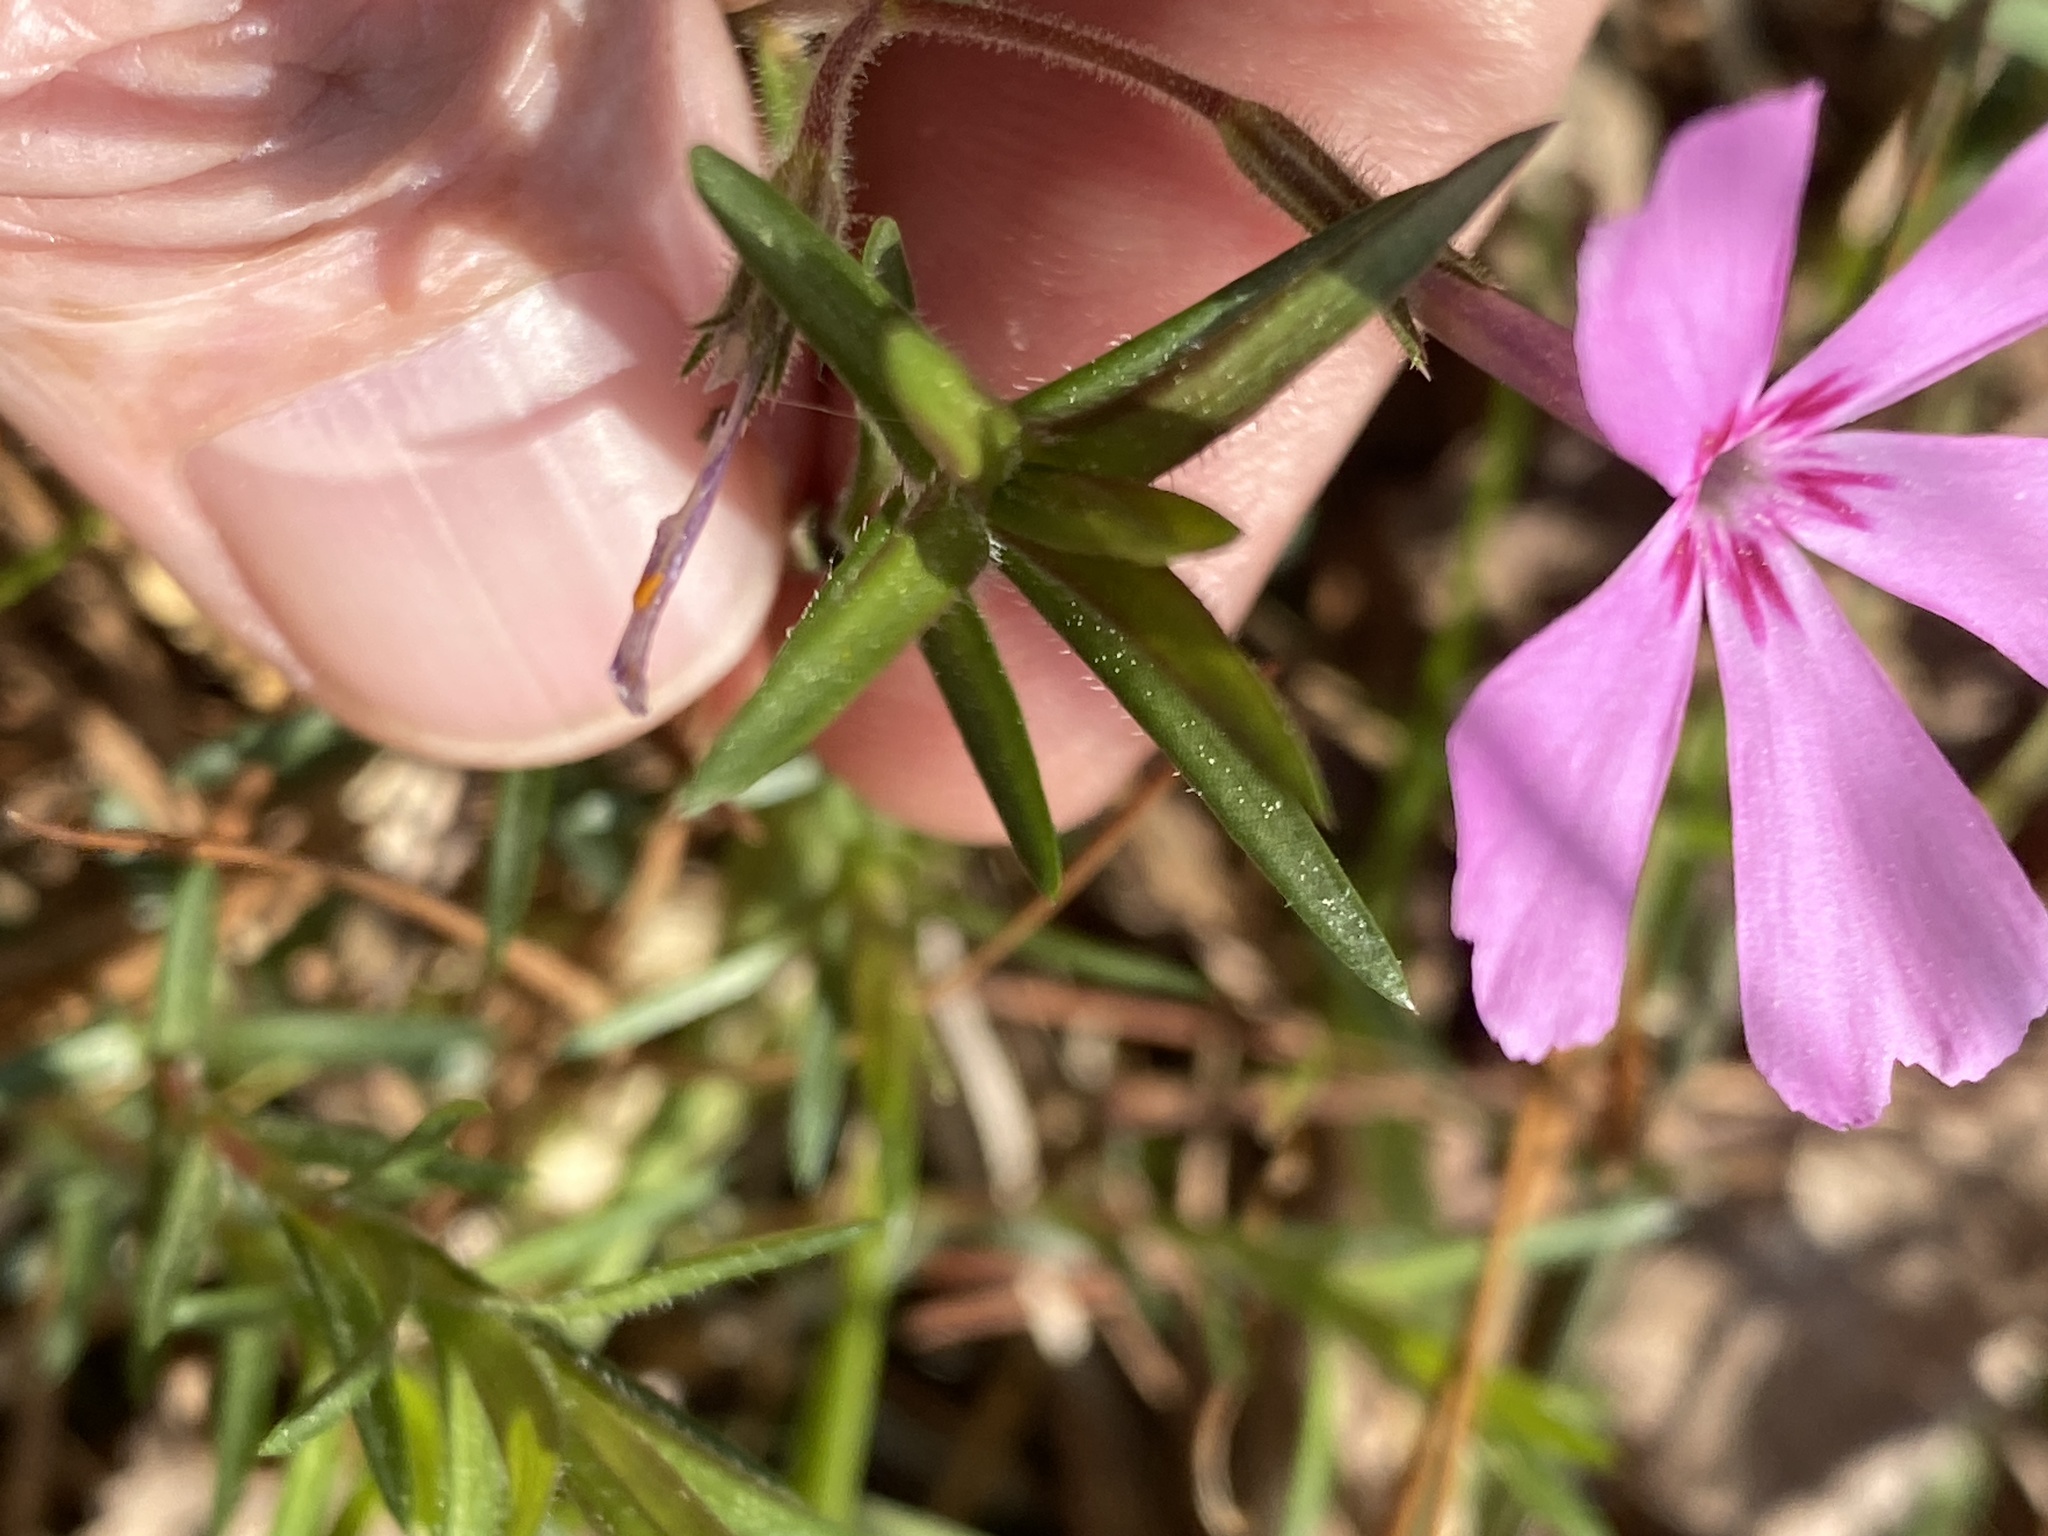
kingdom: Plantae
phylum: Tracheophyta
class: Magnoliopsida
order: Ericales
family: Polemoniaceae
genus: Phlox
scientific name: Phlox nivalis
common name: Trailing phlox
